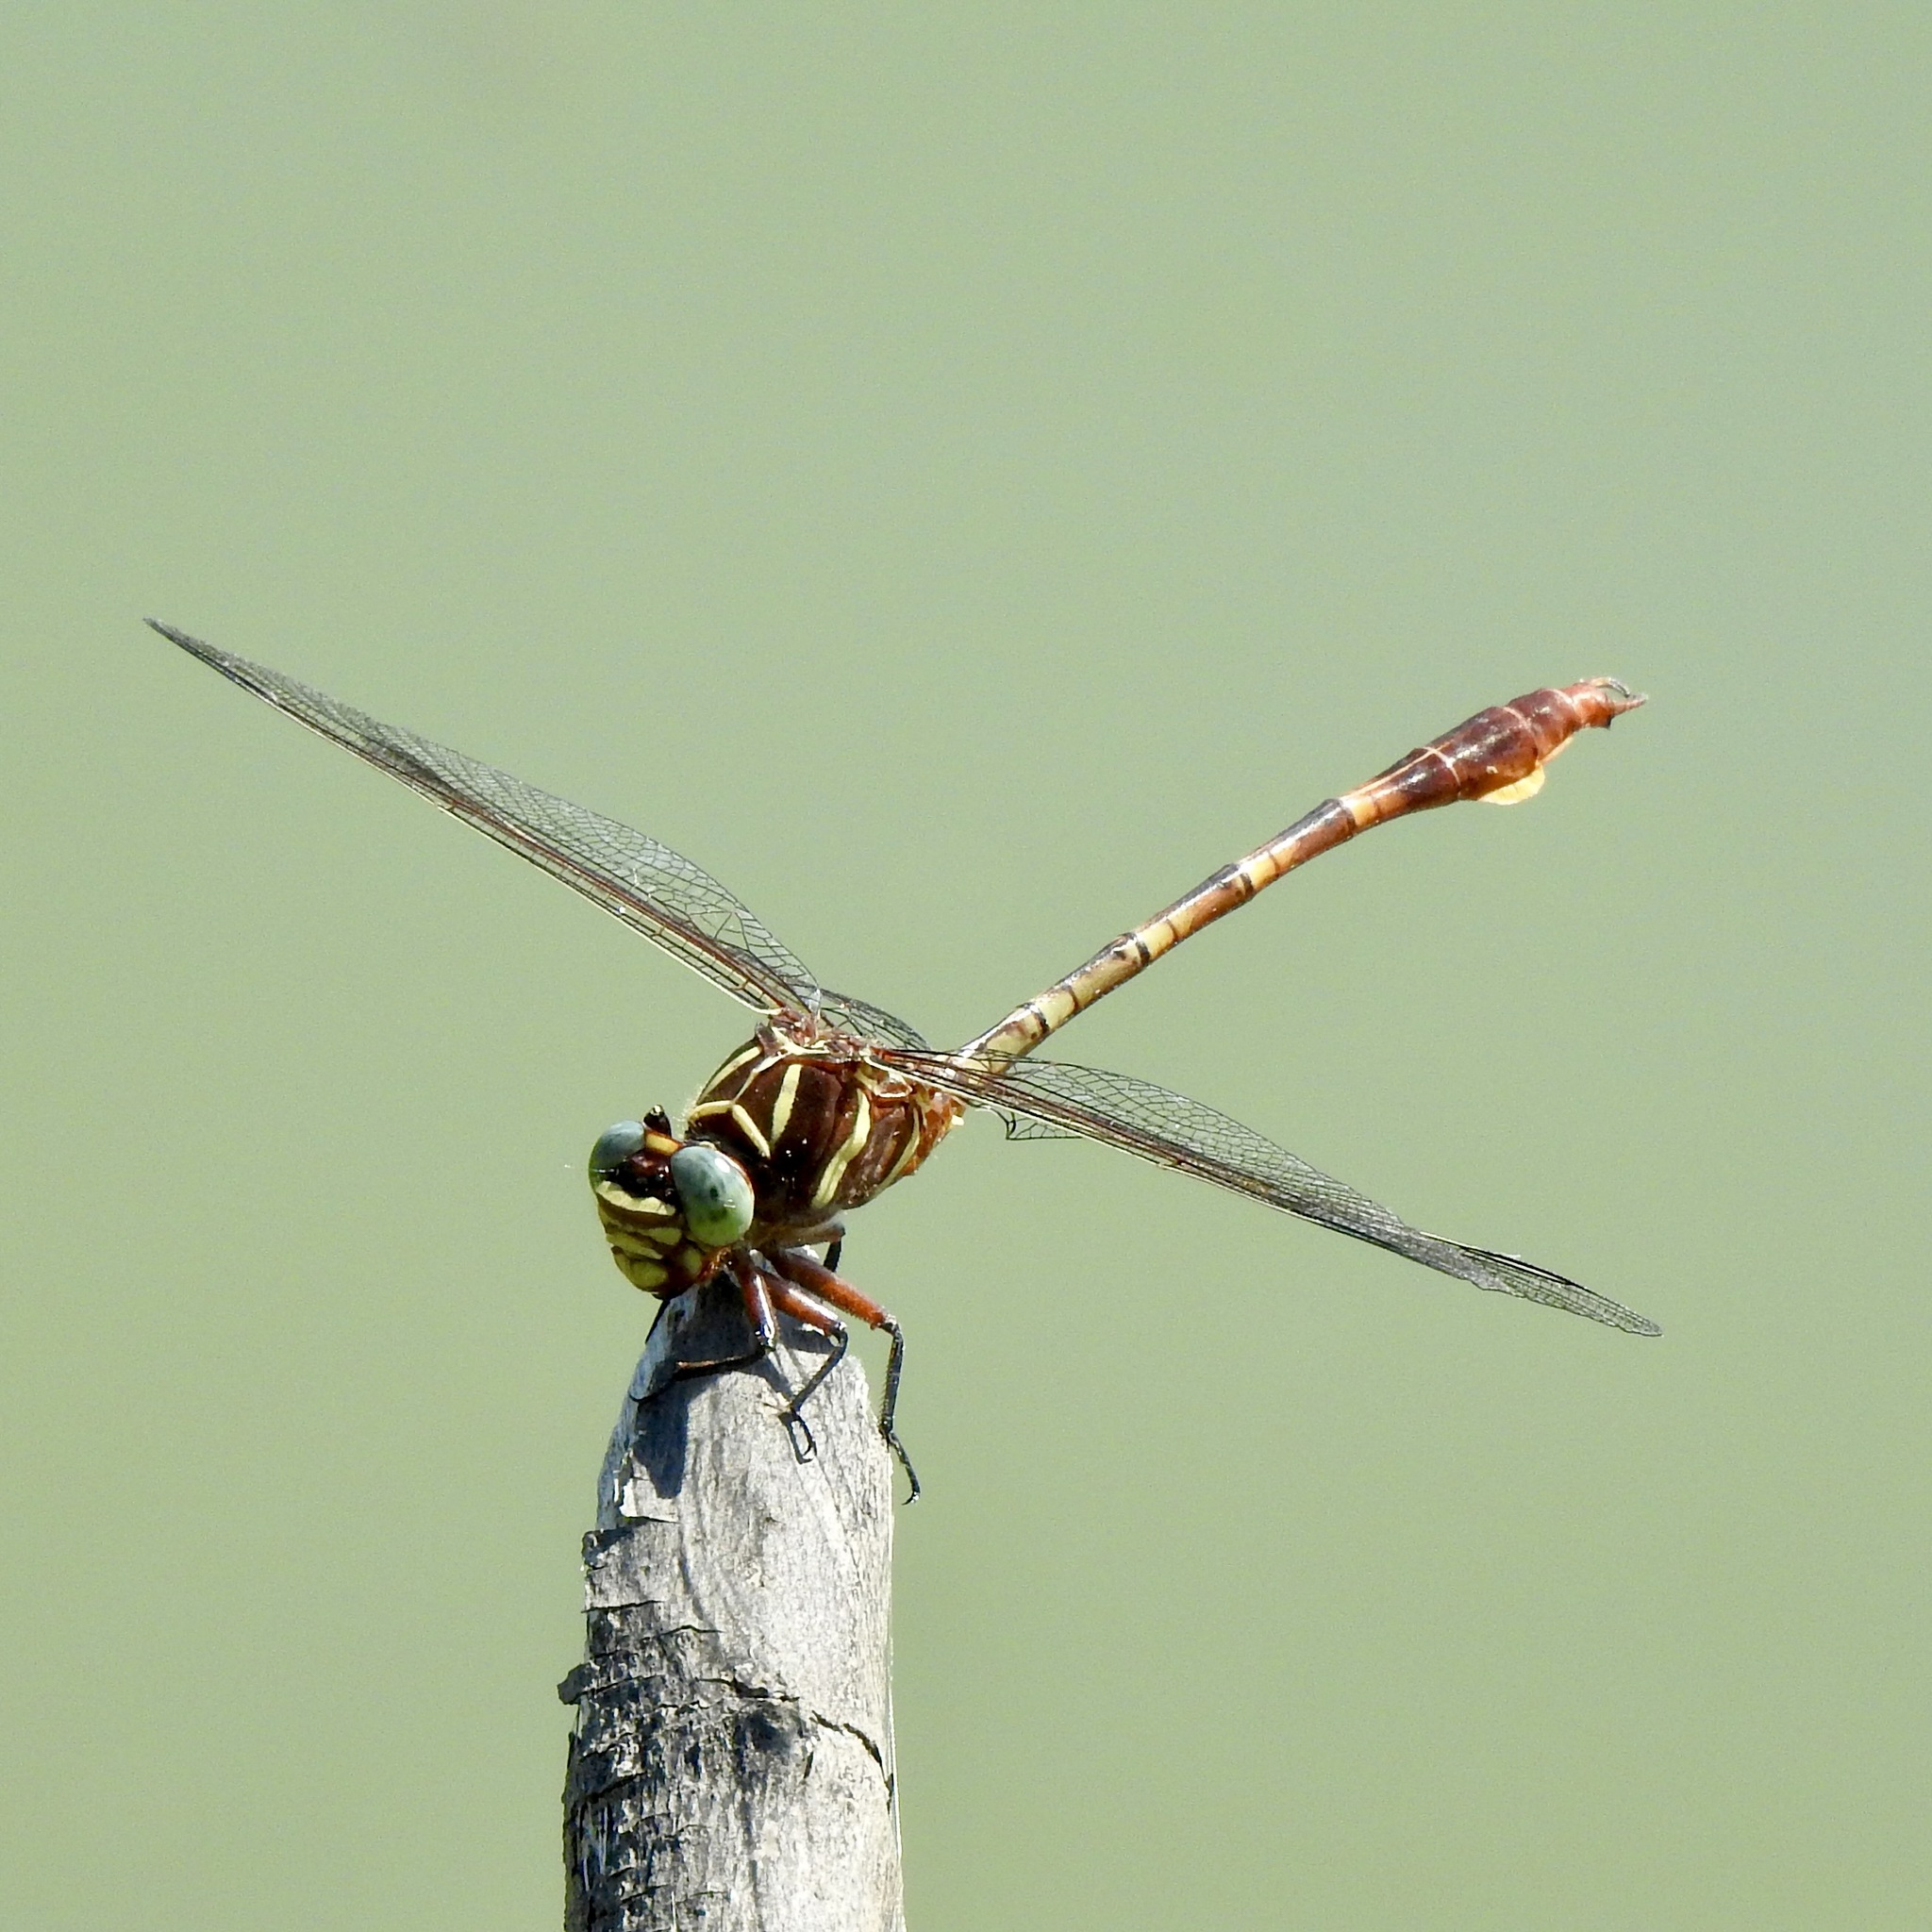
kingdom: Animalia
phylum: Arthropoda
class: Insecta
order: Odonata
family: Gomphidae
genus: Aphylla
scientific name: Aphylla williamsoni
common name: Two-striped forceptail
